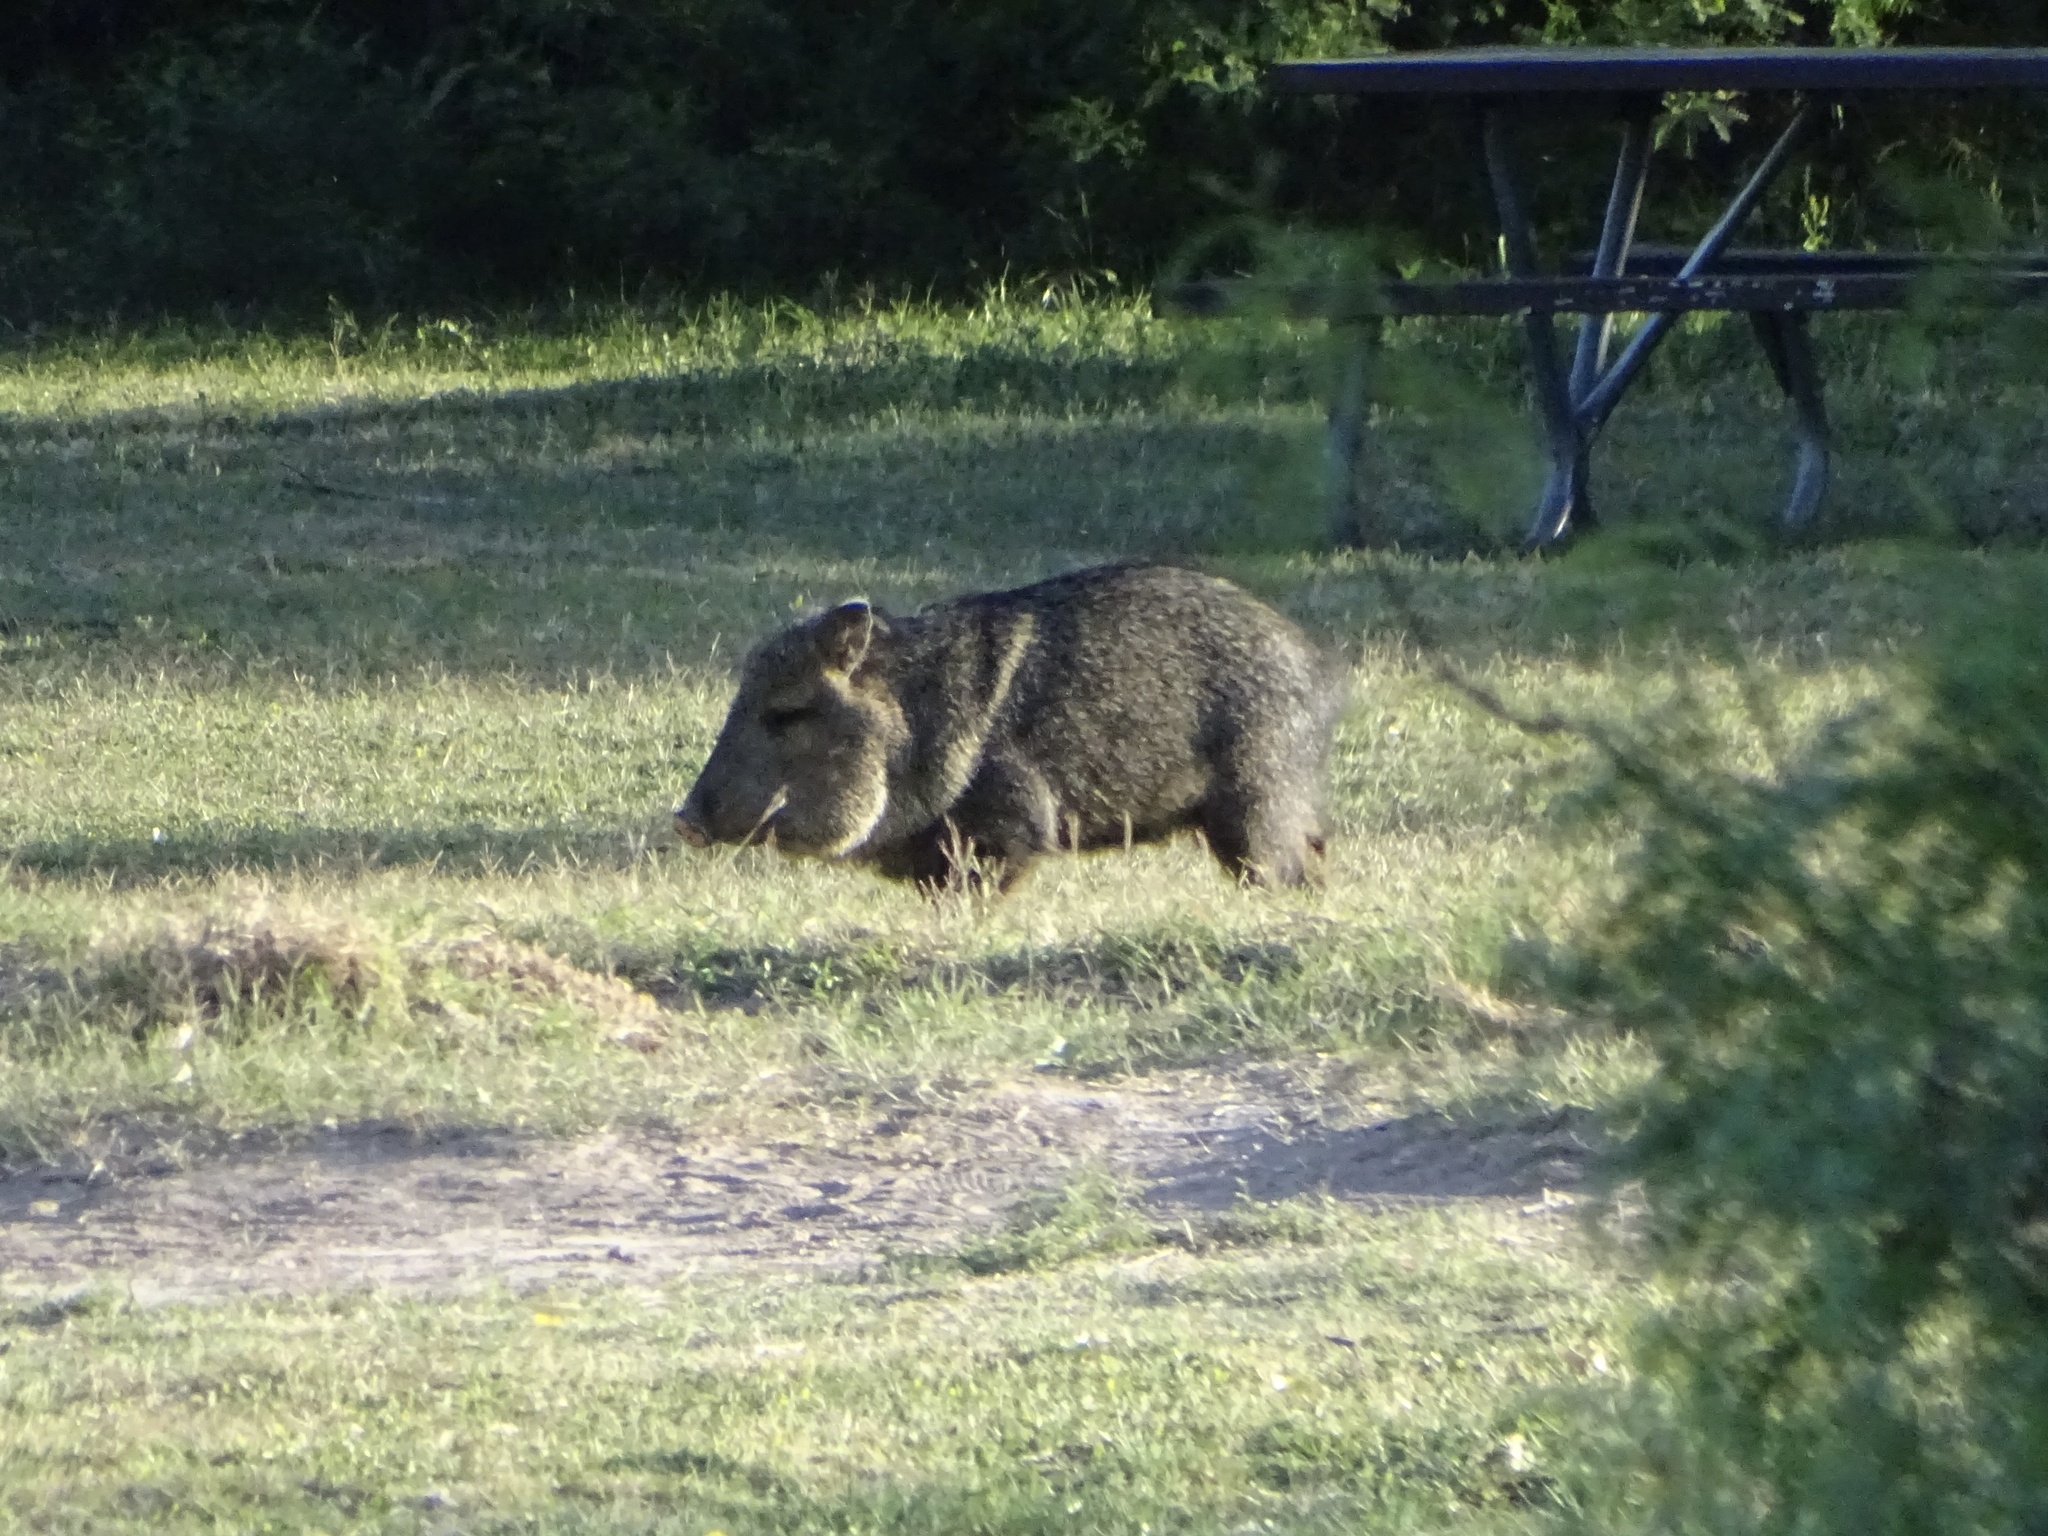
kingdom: Animalia
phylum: Chordata
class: Mammalia
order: Artiodactyla
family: Tayassuidae
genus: Pecari
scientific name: Pecari tajacu
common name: Collared peccary
